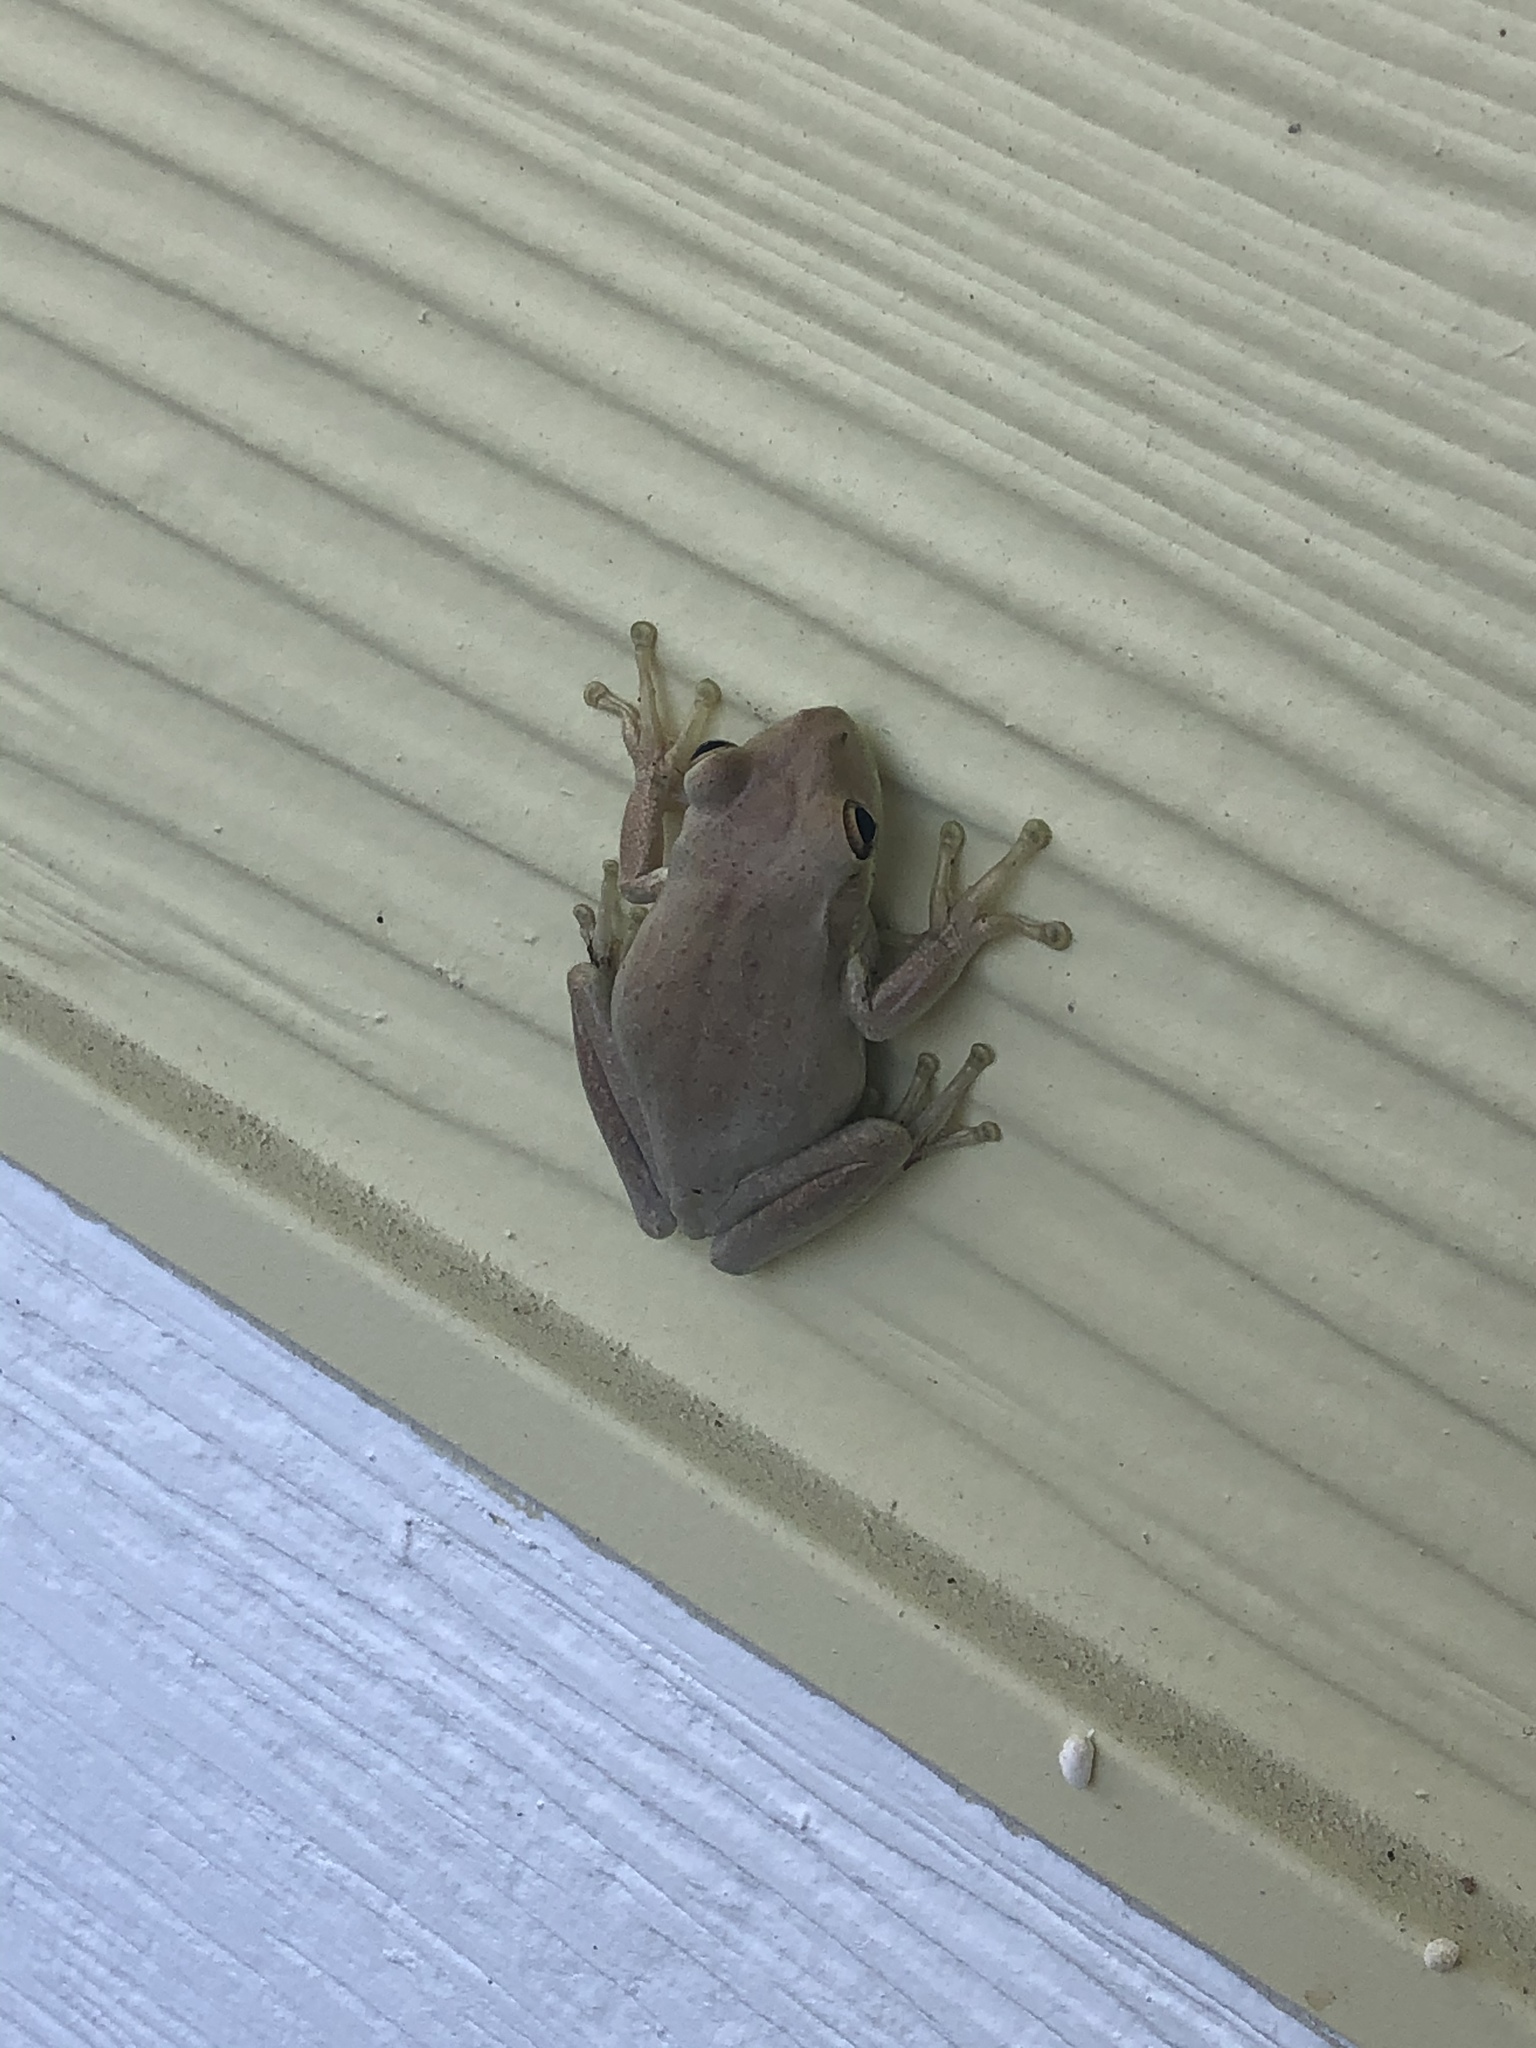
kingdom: Animalia
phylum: Chordata
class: Amphibia
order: Anura
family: Hylidae
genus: Osteopilus
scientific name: Osteopilus septentrionalis
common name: Cuban treefrog
